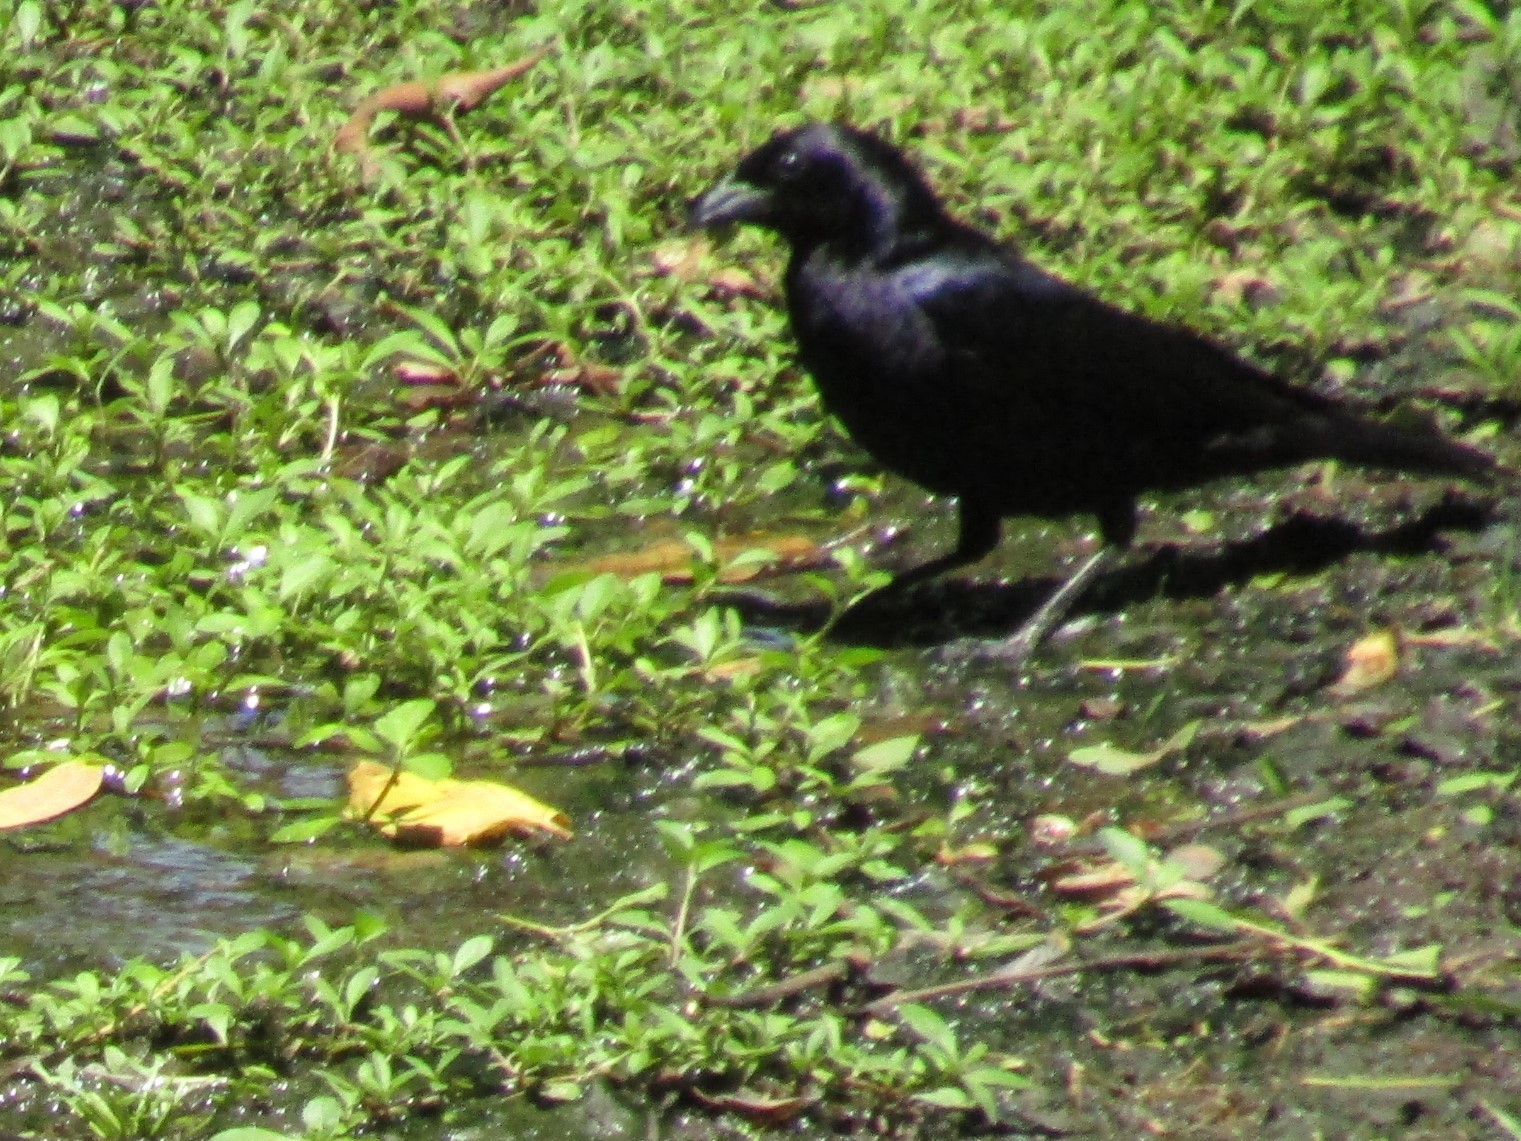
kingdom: Animalia
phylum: Chordata
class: Aves
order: Passeriformes
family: Icteridae
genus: Molothrus
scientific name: Molothrus bonariensis
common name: Shiny cowbird
